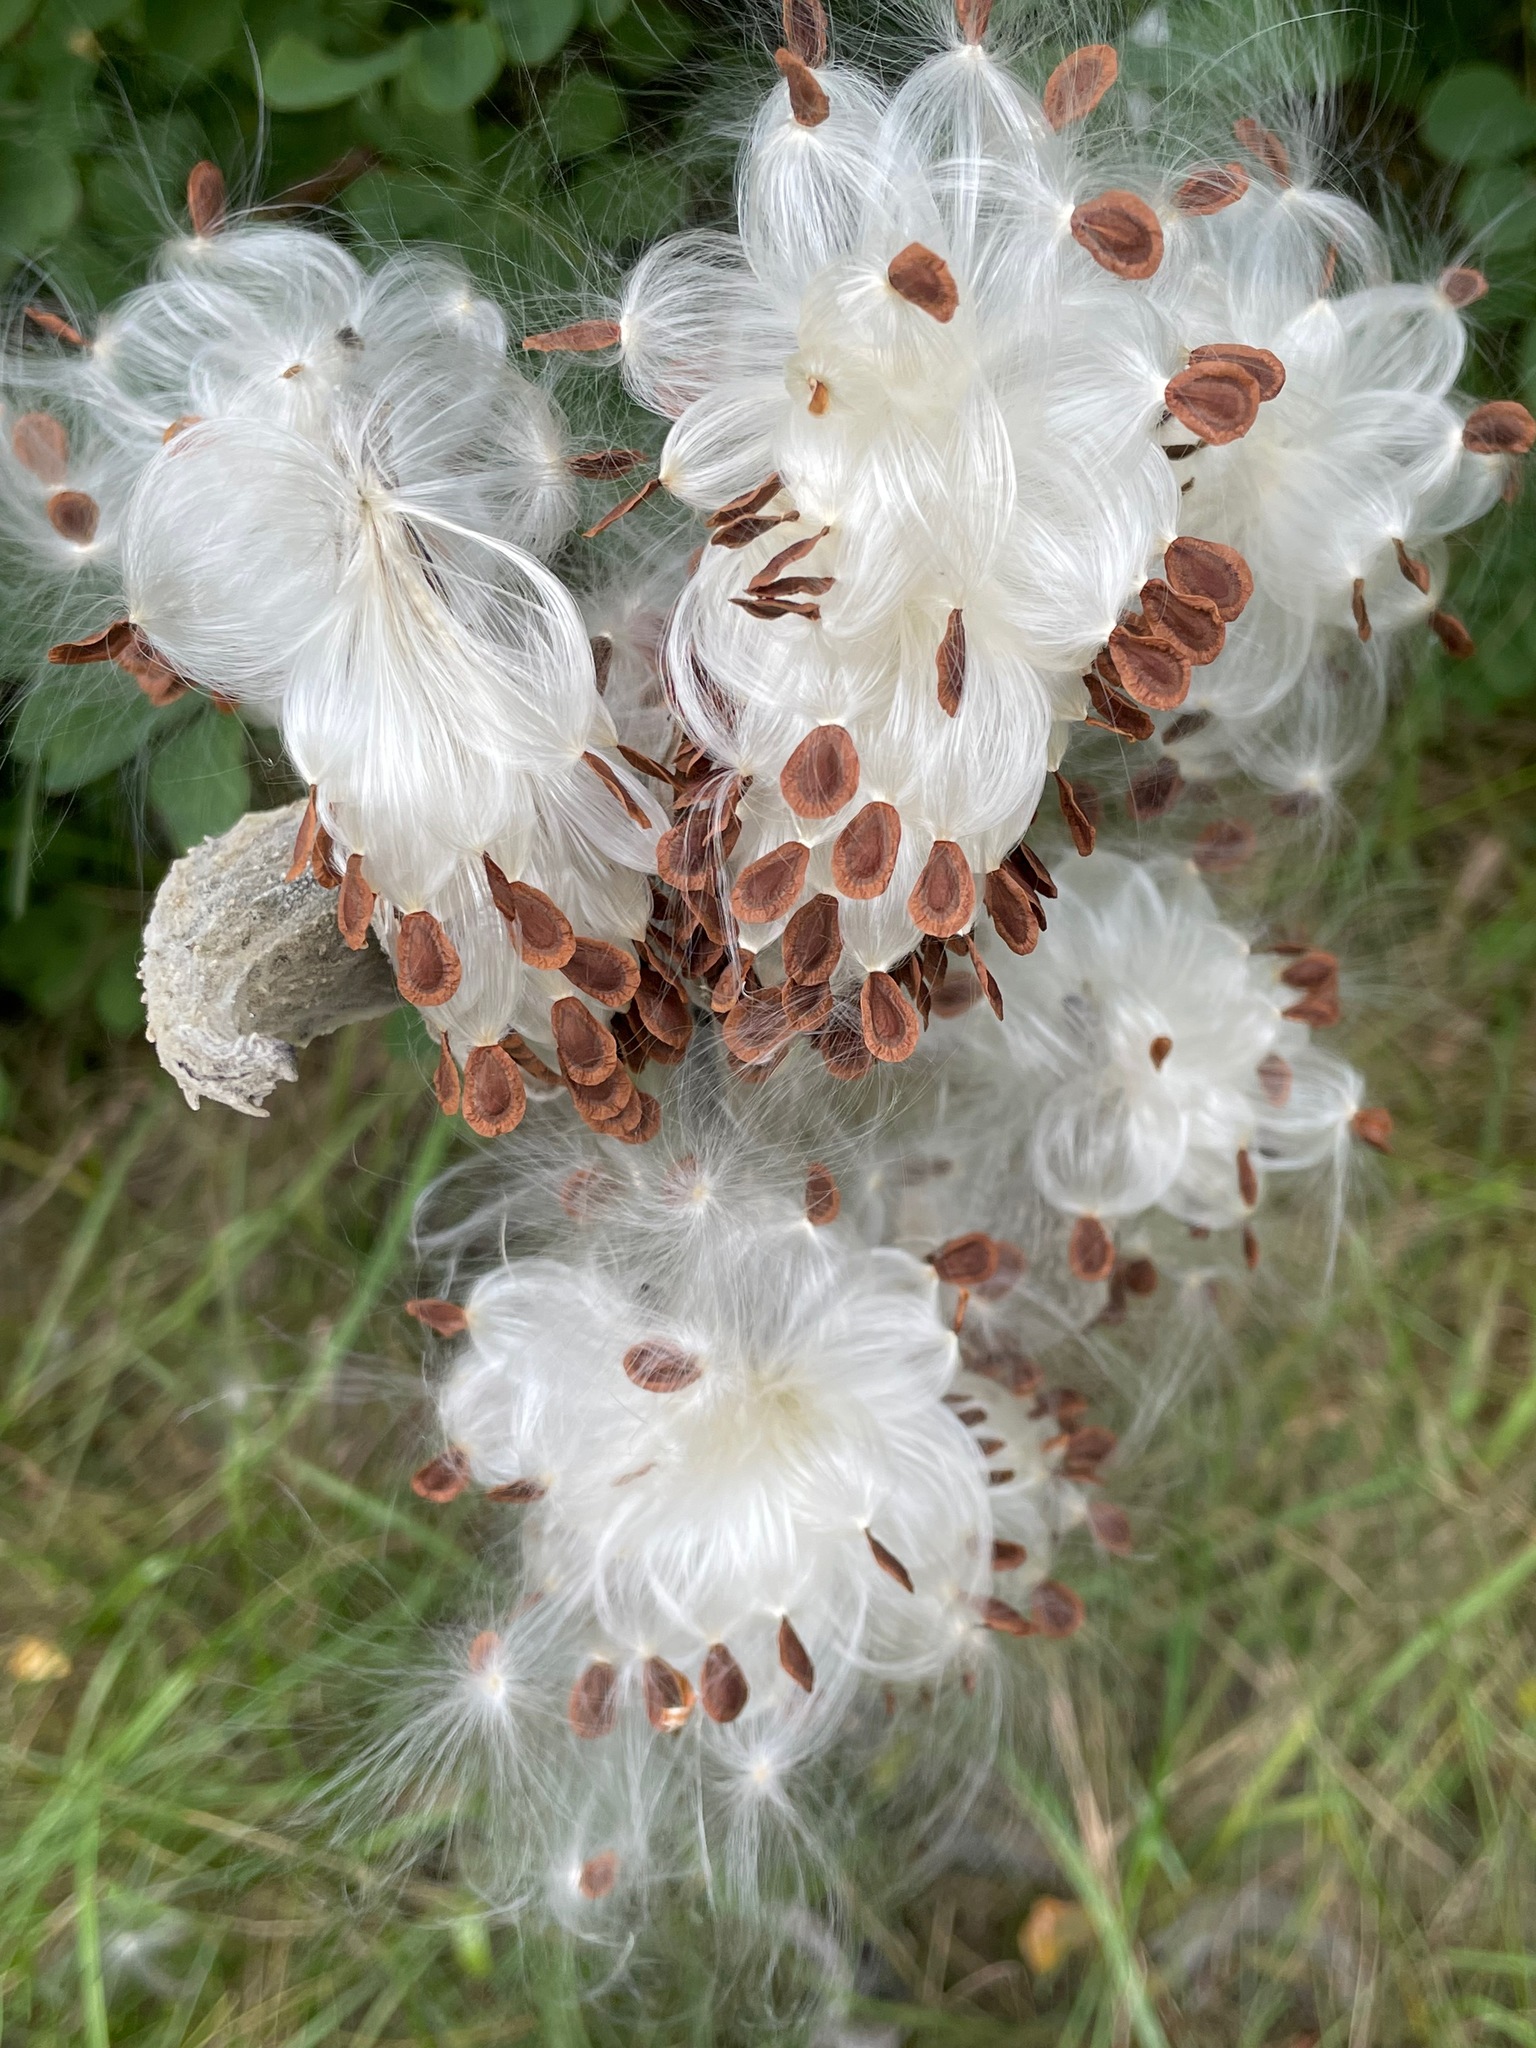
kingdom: Plantae
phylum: Tracheophyta
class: Magnoliopsida
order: Gentianales
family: Apocynaceae
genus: Asclepias
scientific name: Asclepias syriaca
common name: Common milkweed
